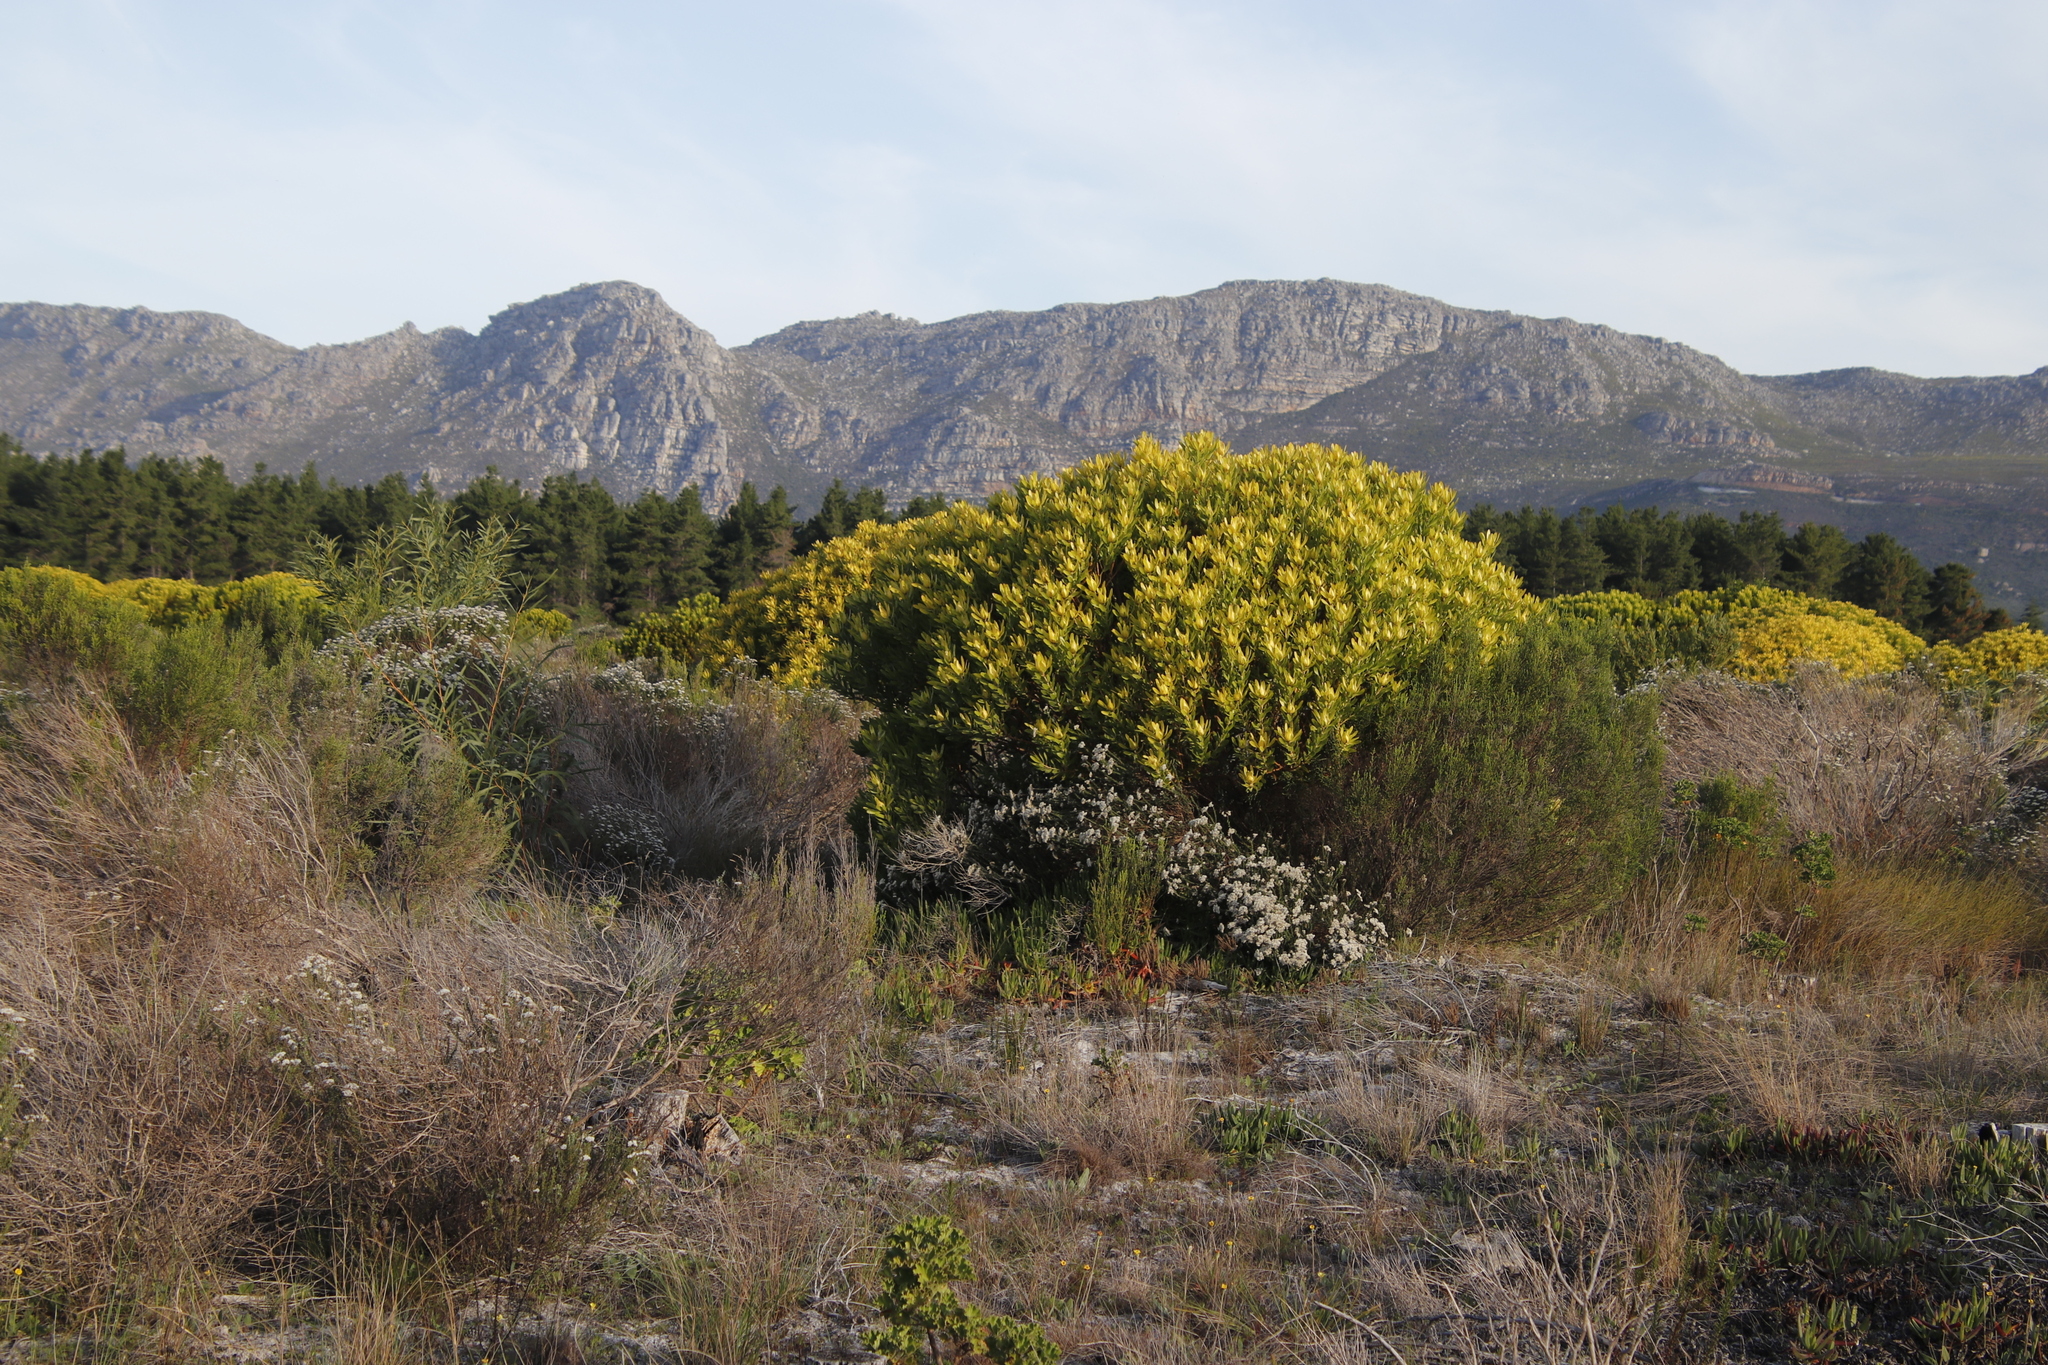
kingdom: Plantae
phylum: Tracheophyta
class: Magnoliopsida
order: Proteales
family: Proteaceae
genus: Leucadendron
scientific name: Leucadendron laureolum
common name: Golden sunshinebush
